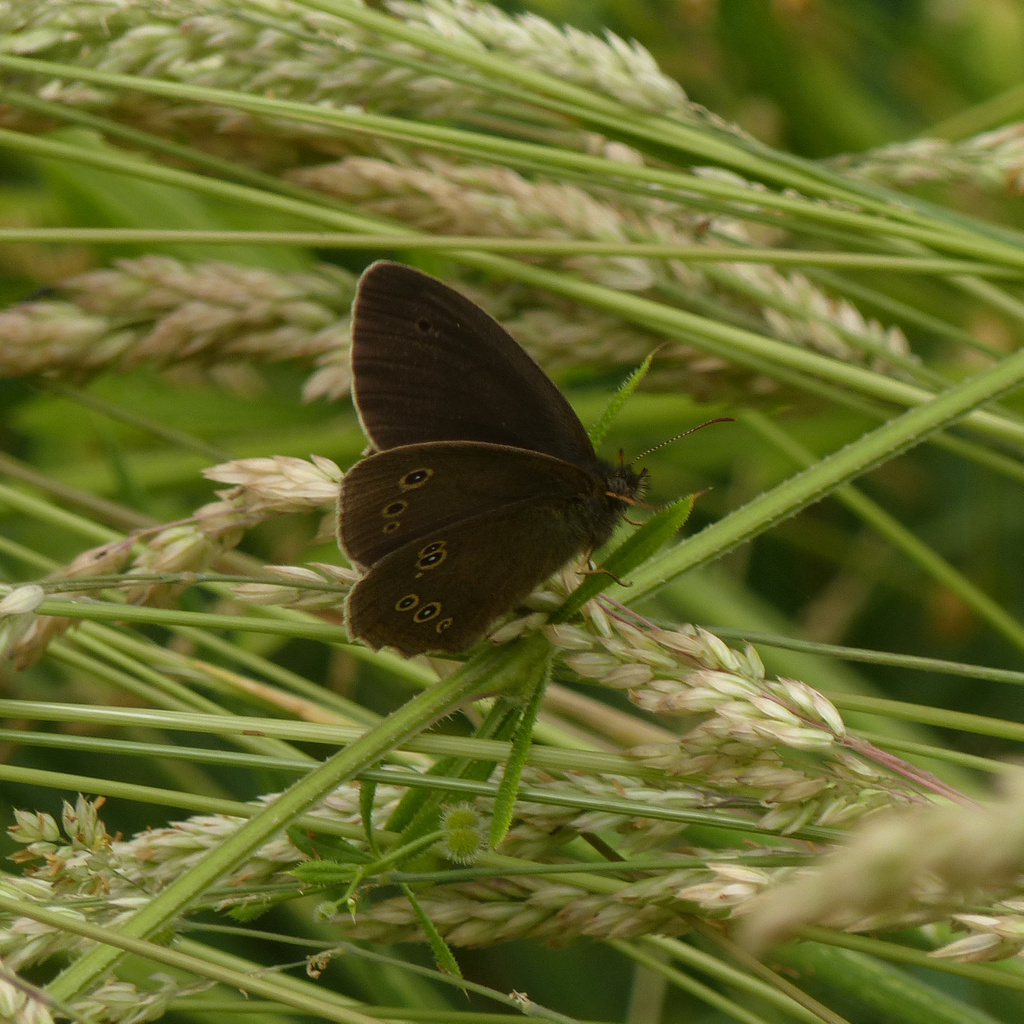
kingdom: Animalia
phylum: Arthropoda
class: Insecta
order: Lepidoptera
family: Nymphalidae
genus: Aphantopus
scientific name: Aphantopus hyperantus
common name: Ringlet
